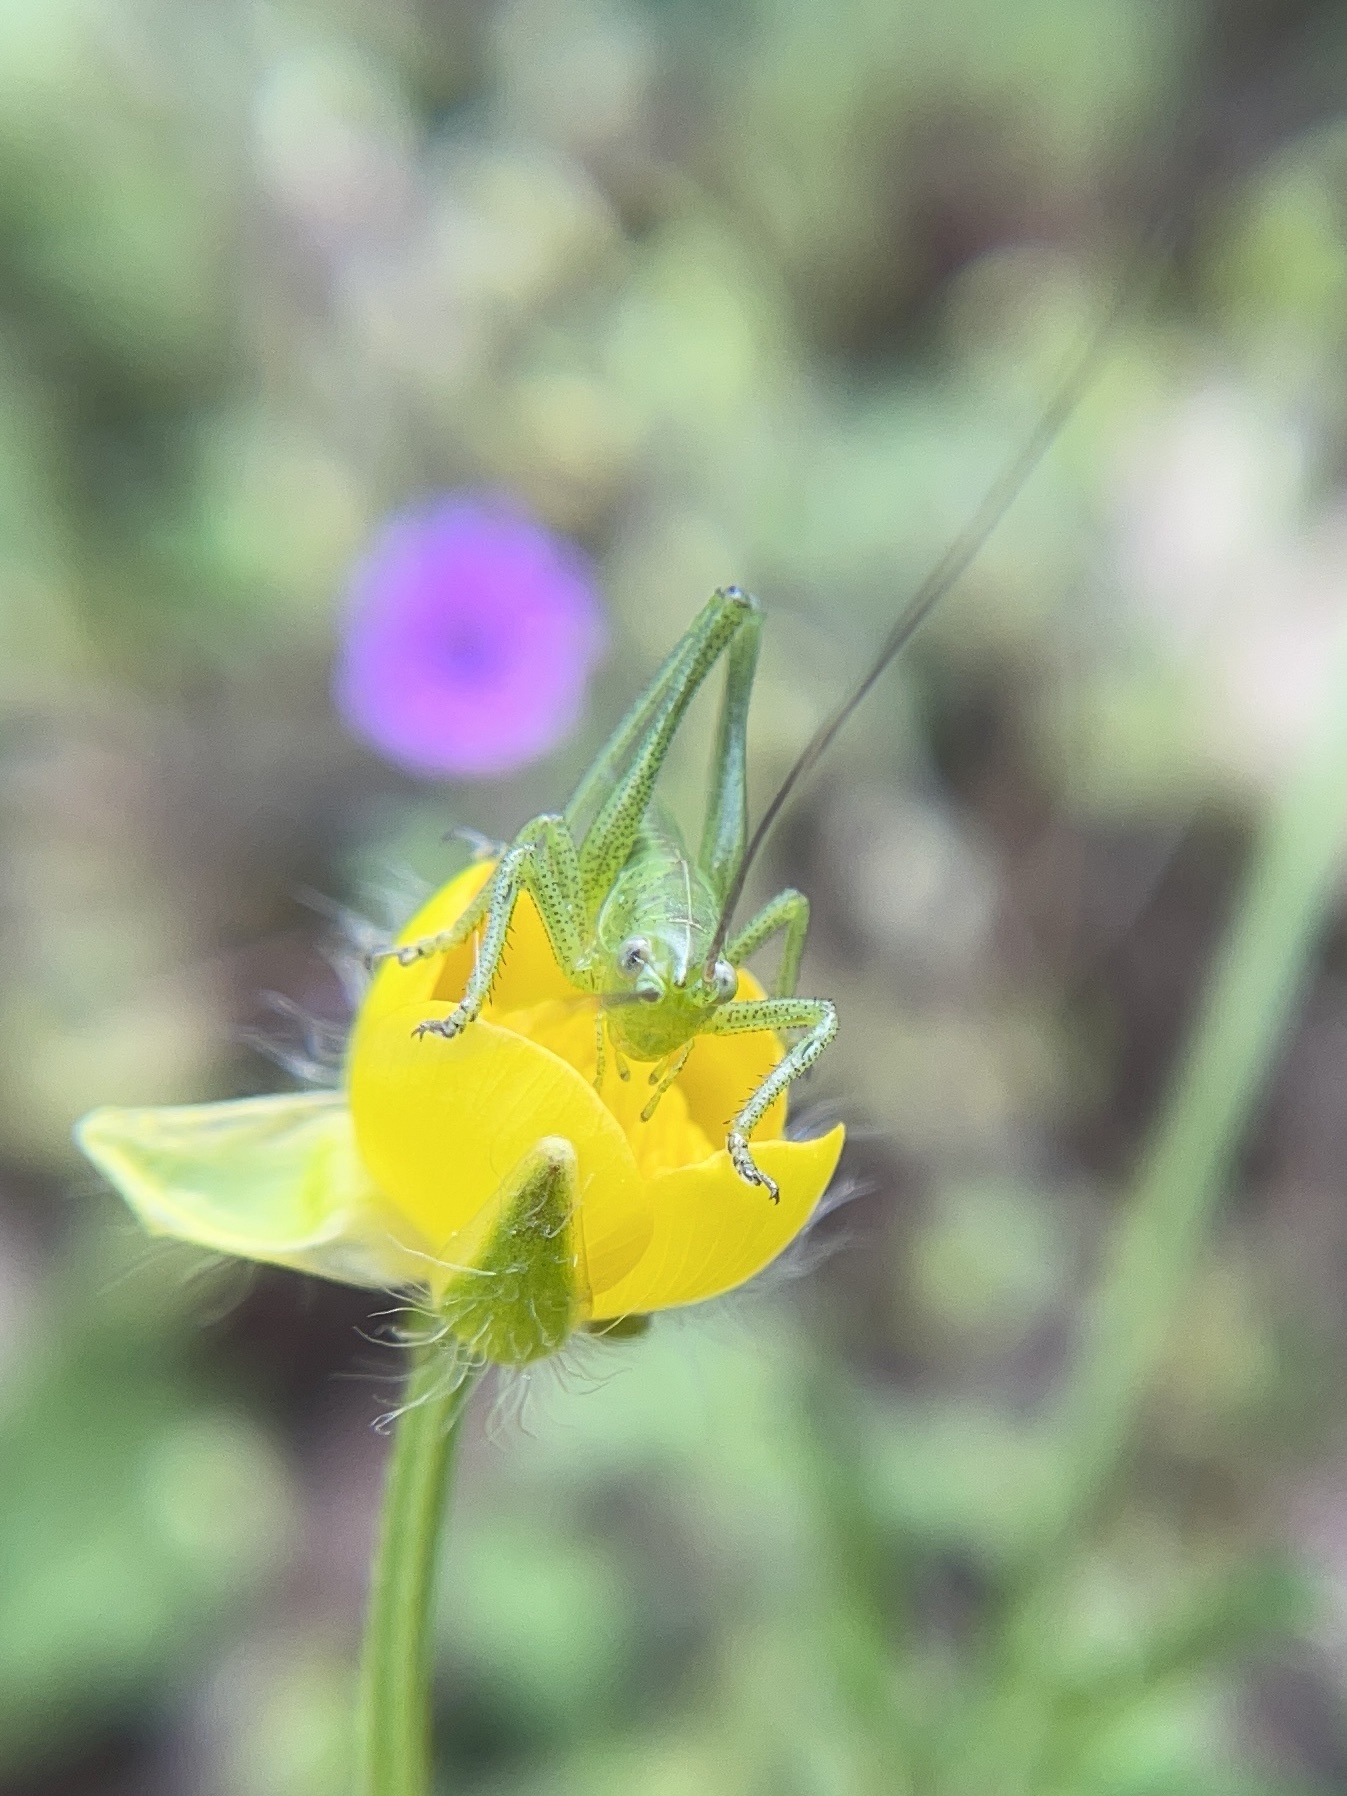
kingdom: Animalia
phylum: Arthropoda
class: Insecta
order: Orthoptera
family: Tettigoniidae
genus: Tettigonia
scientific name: Tettigonia viridissima
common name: Great green bush-cricket
